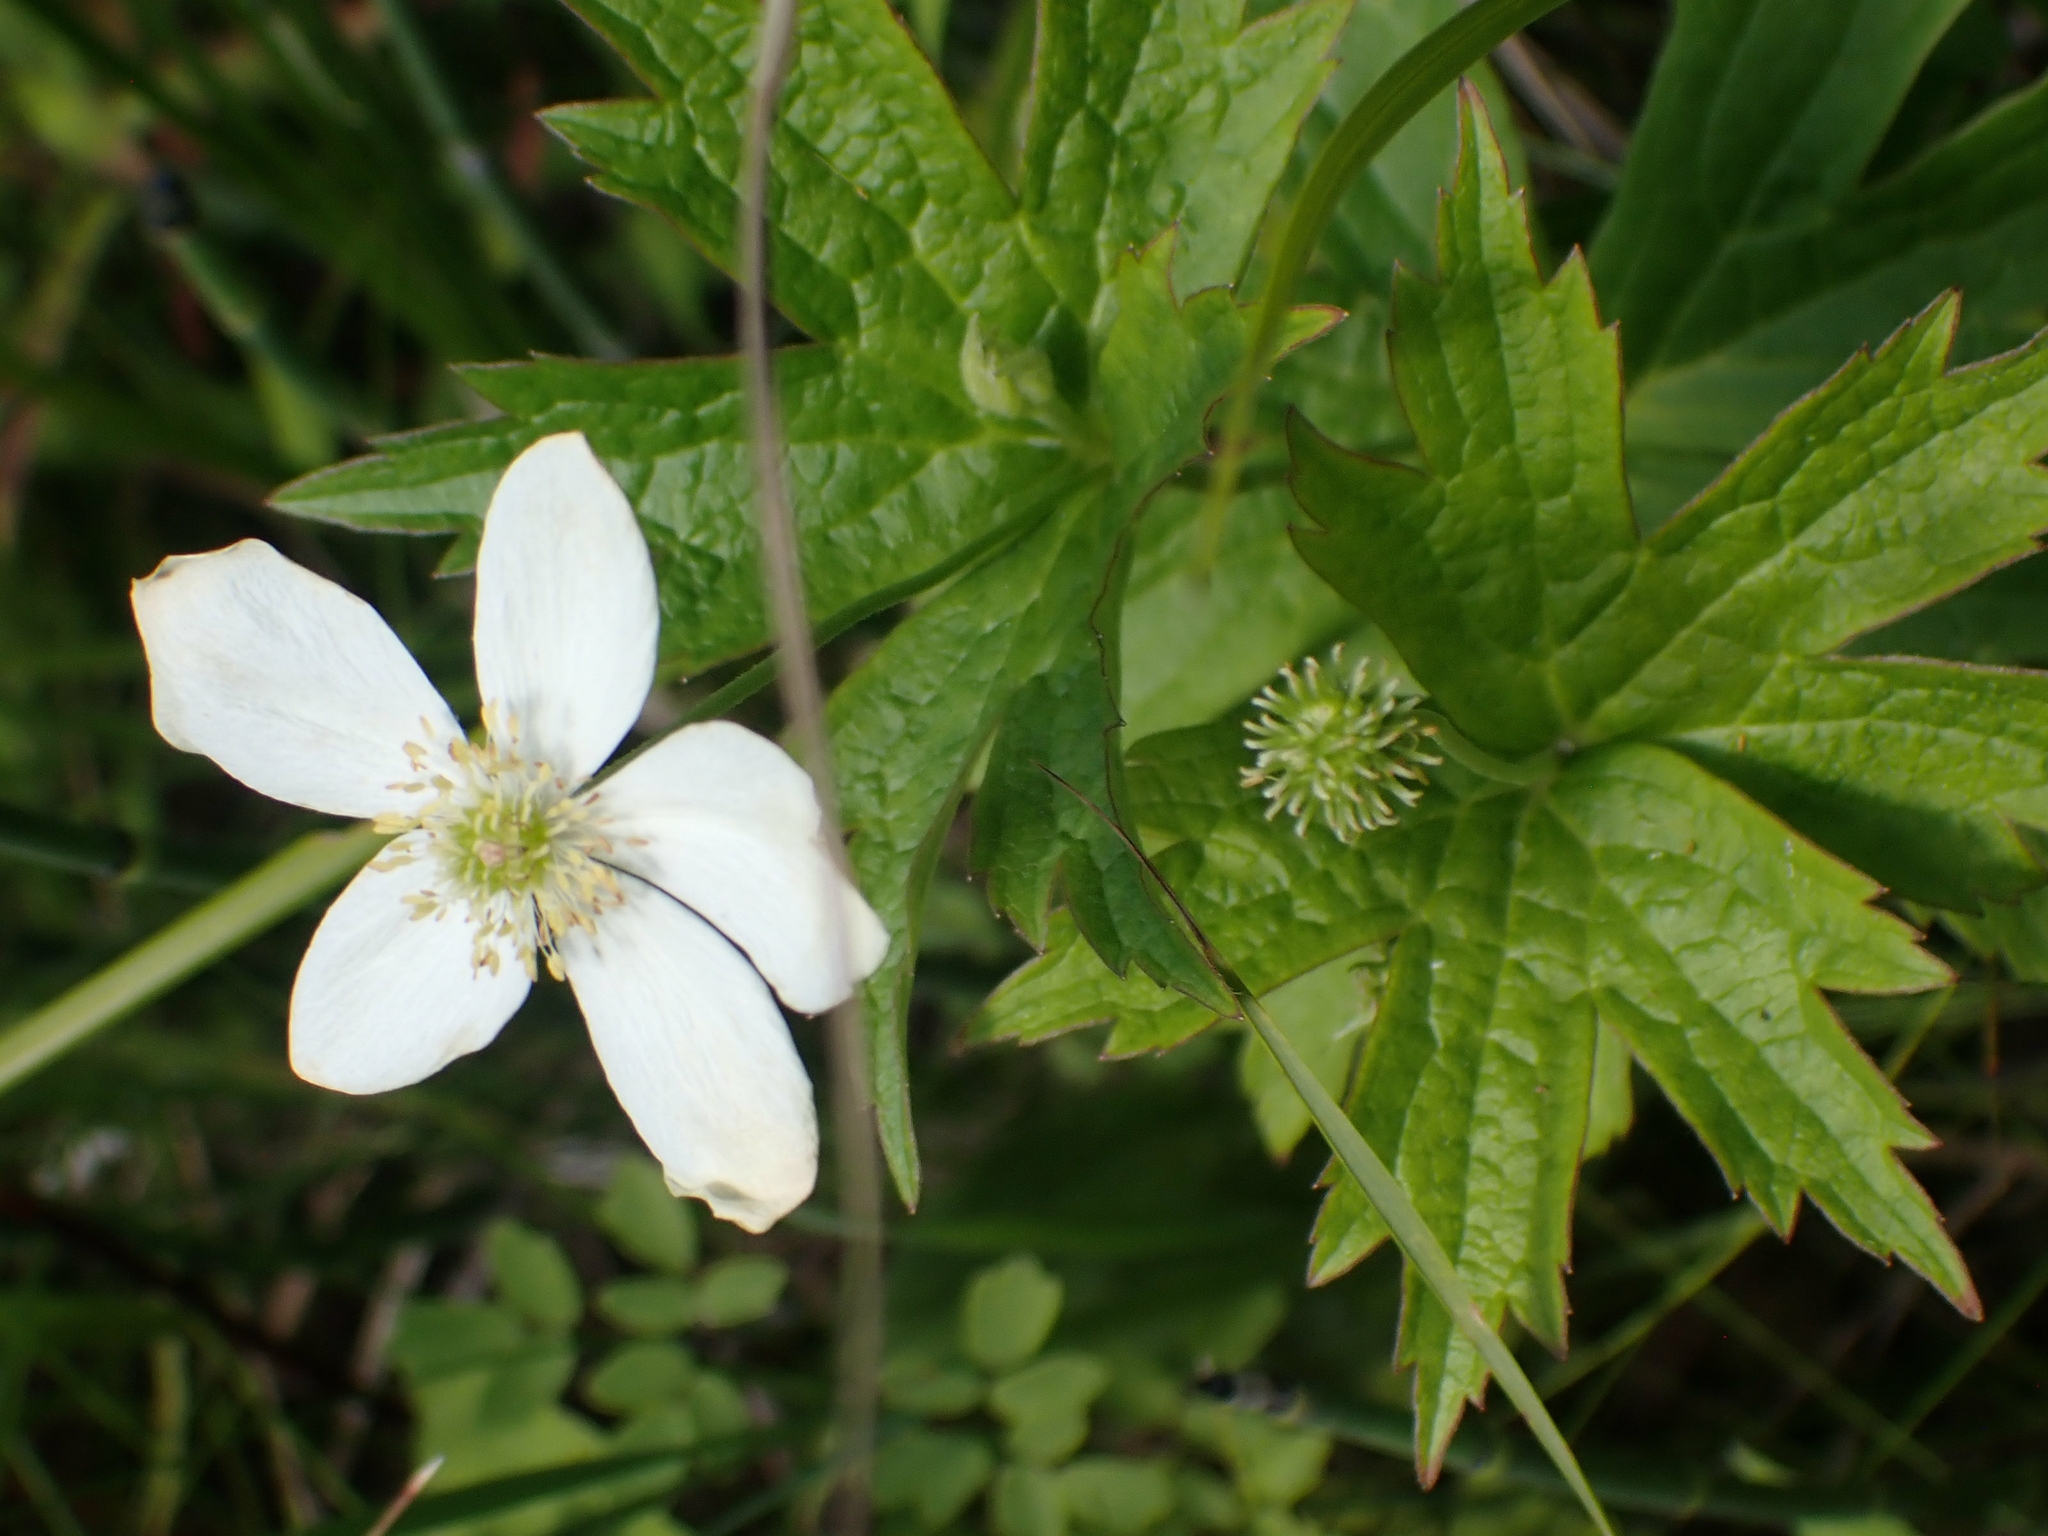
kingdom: Plantae
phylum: Tracheophyta
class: Magnoliopsida
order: Ranunculales
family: Ranunculaceae
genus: Anemonastrum
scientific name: Anemonastrum canadense
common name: Canada anemone
